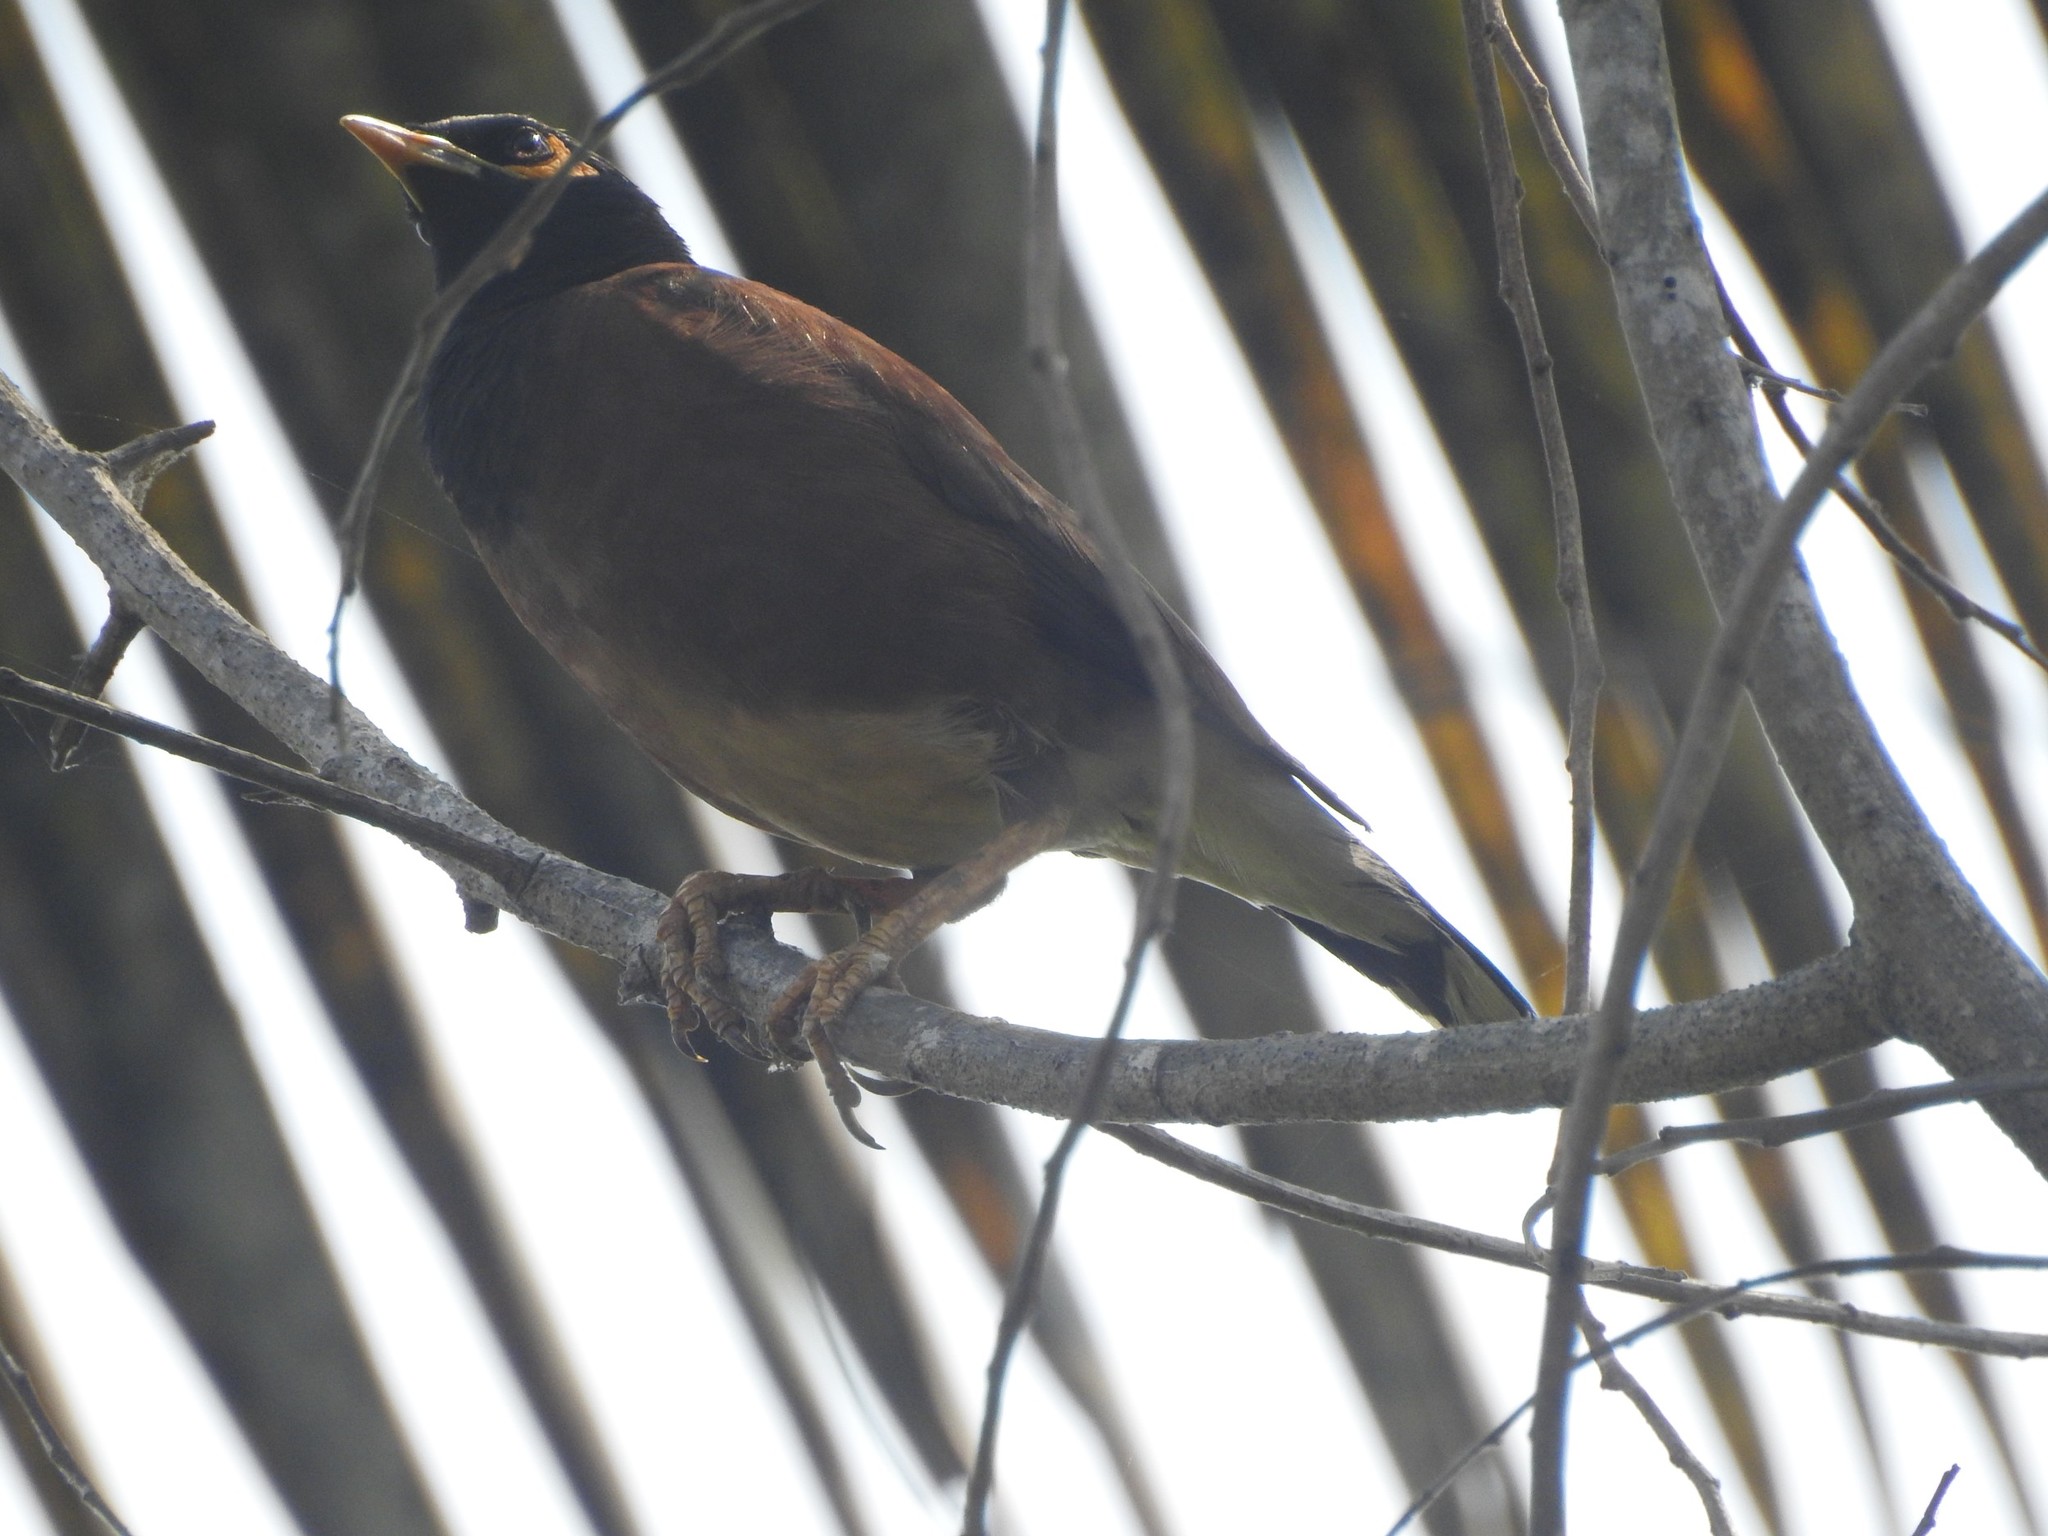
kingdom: Animalia
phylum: Chordata
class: Aves
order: Passeriformes
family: Sturnidae
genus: Acridotheres
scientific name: Acridotheres tristis
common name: Common myna
